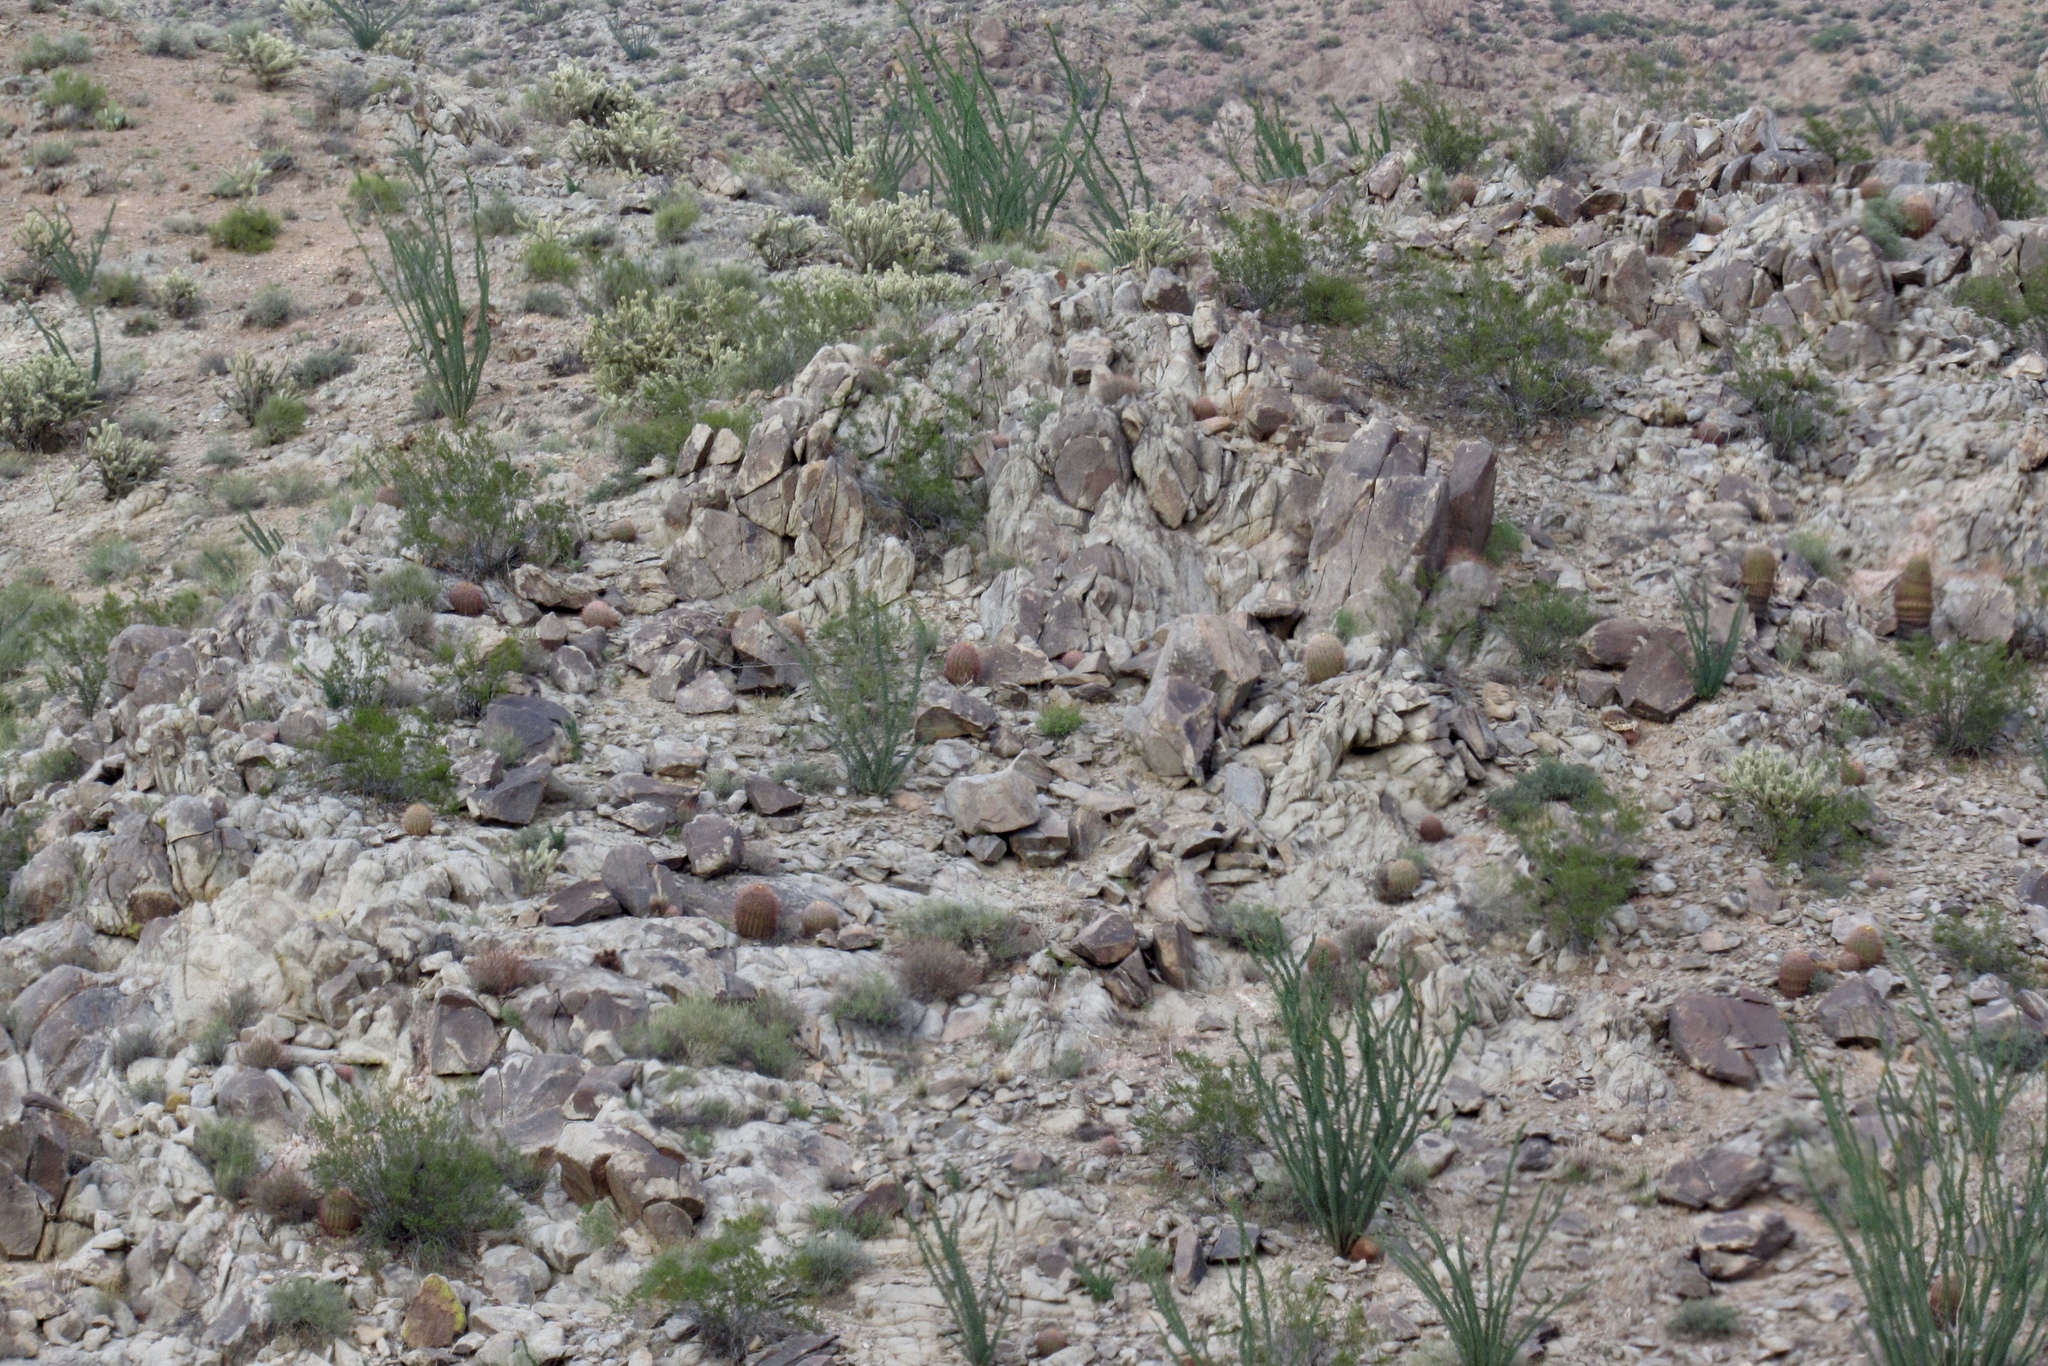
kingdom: Plantae
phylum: Tracheophyta
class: Magnoliopsida
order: Ericales
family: Fouquieriaceae
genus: Fouquieria
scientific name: Fouquieria splendens
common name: Vine-cactus
